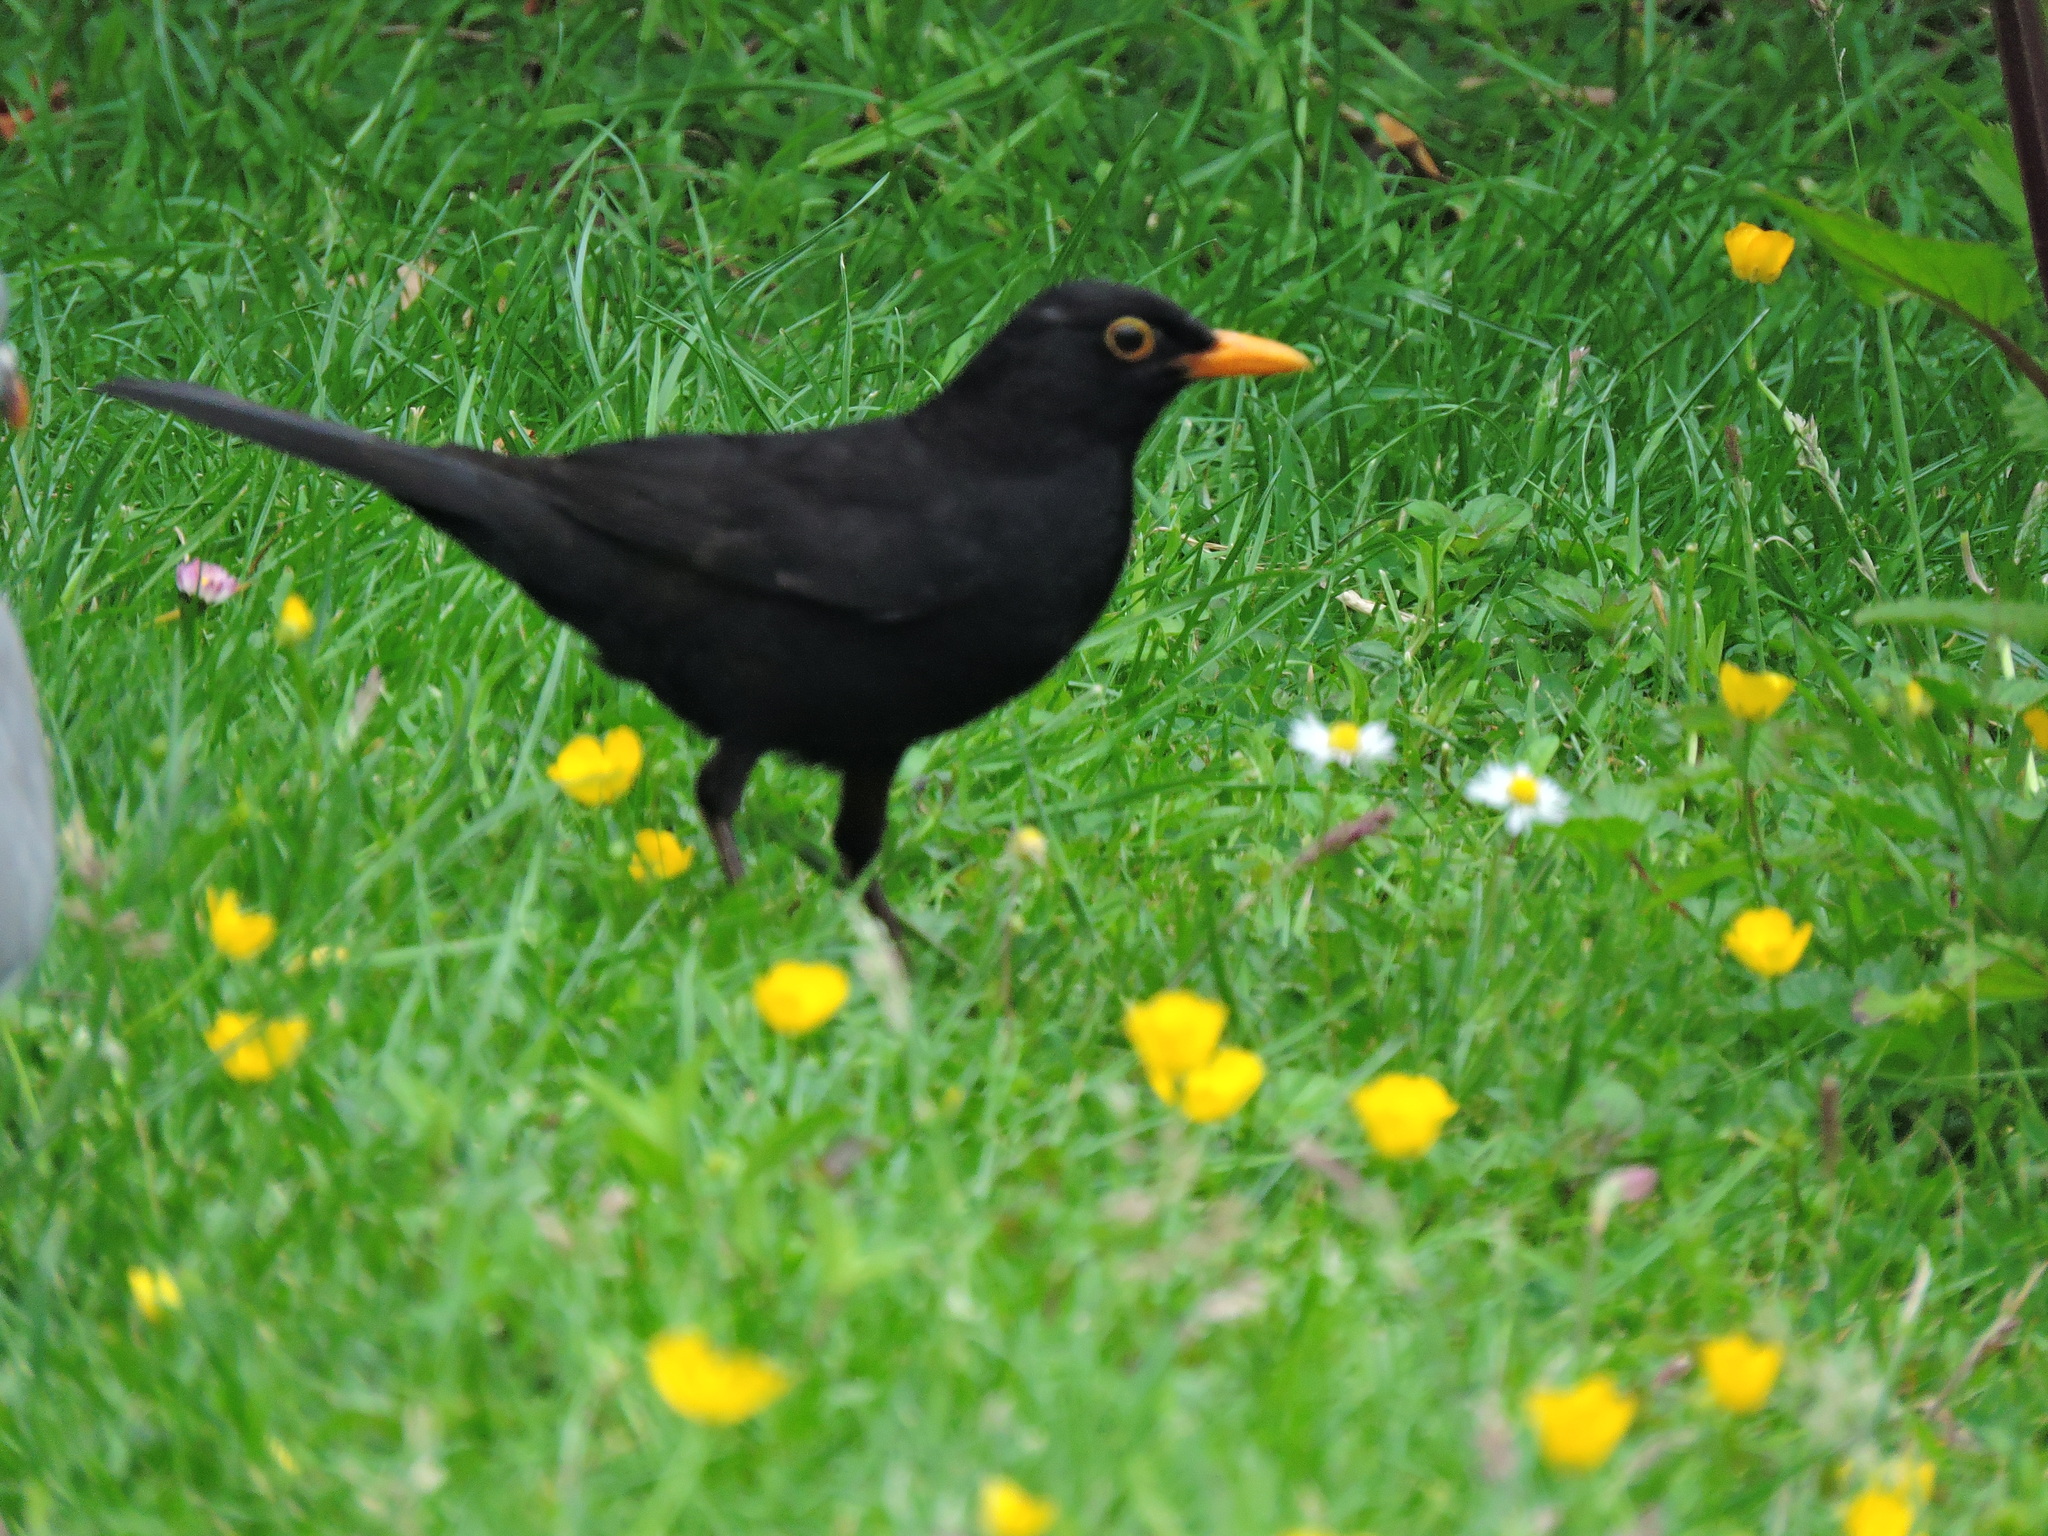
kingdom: Animalia
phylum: Chordata
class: Aves
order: Passeriformes
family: Turdidae
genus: Turdus
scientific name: Turdus merula
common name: Common blackbird
